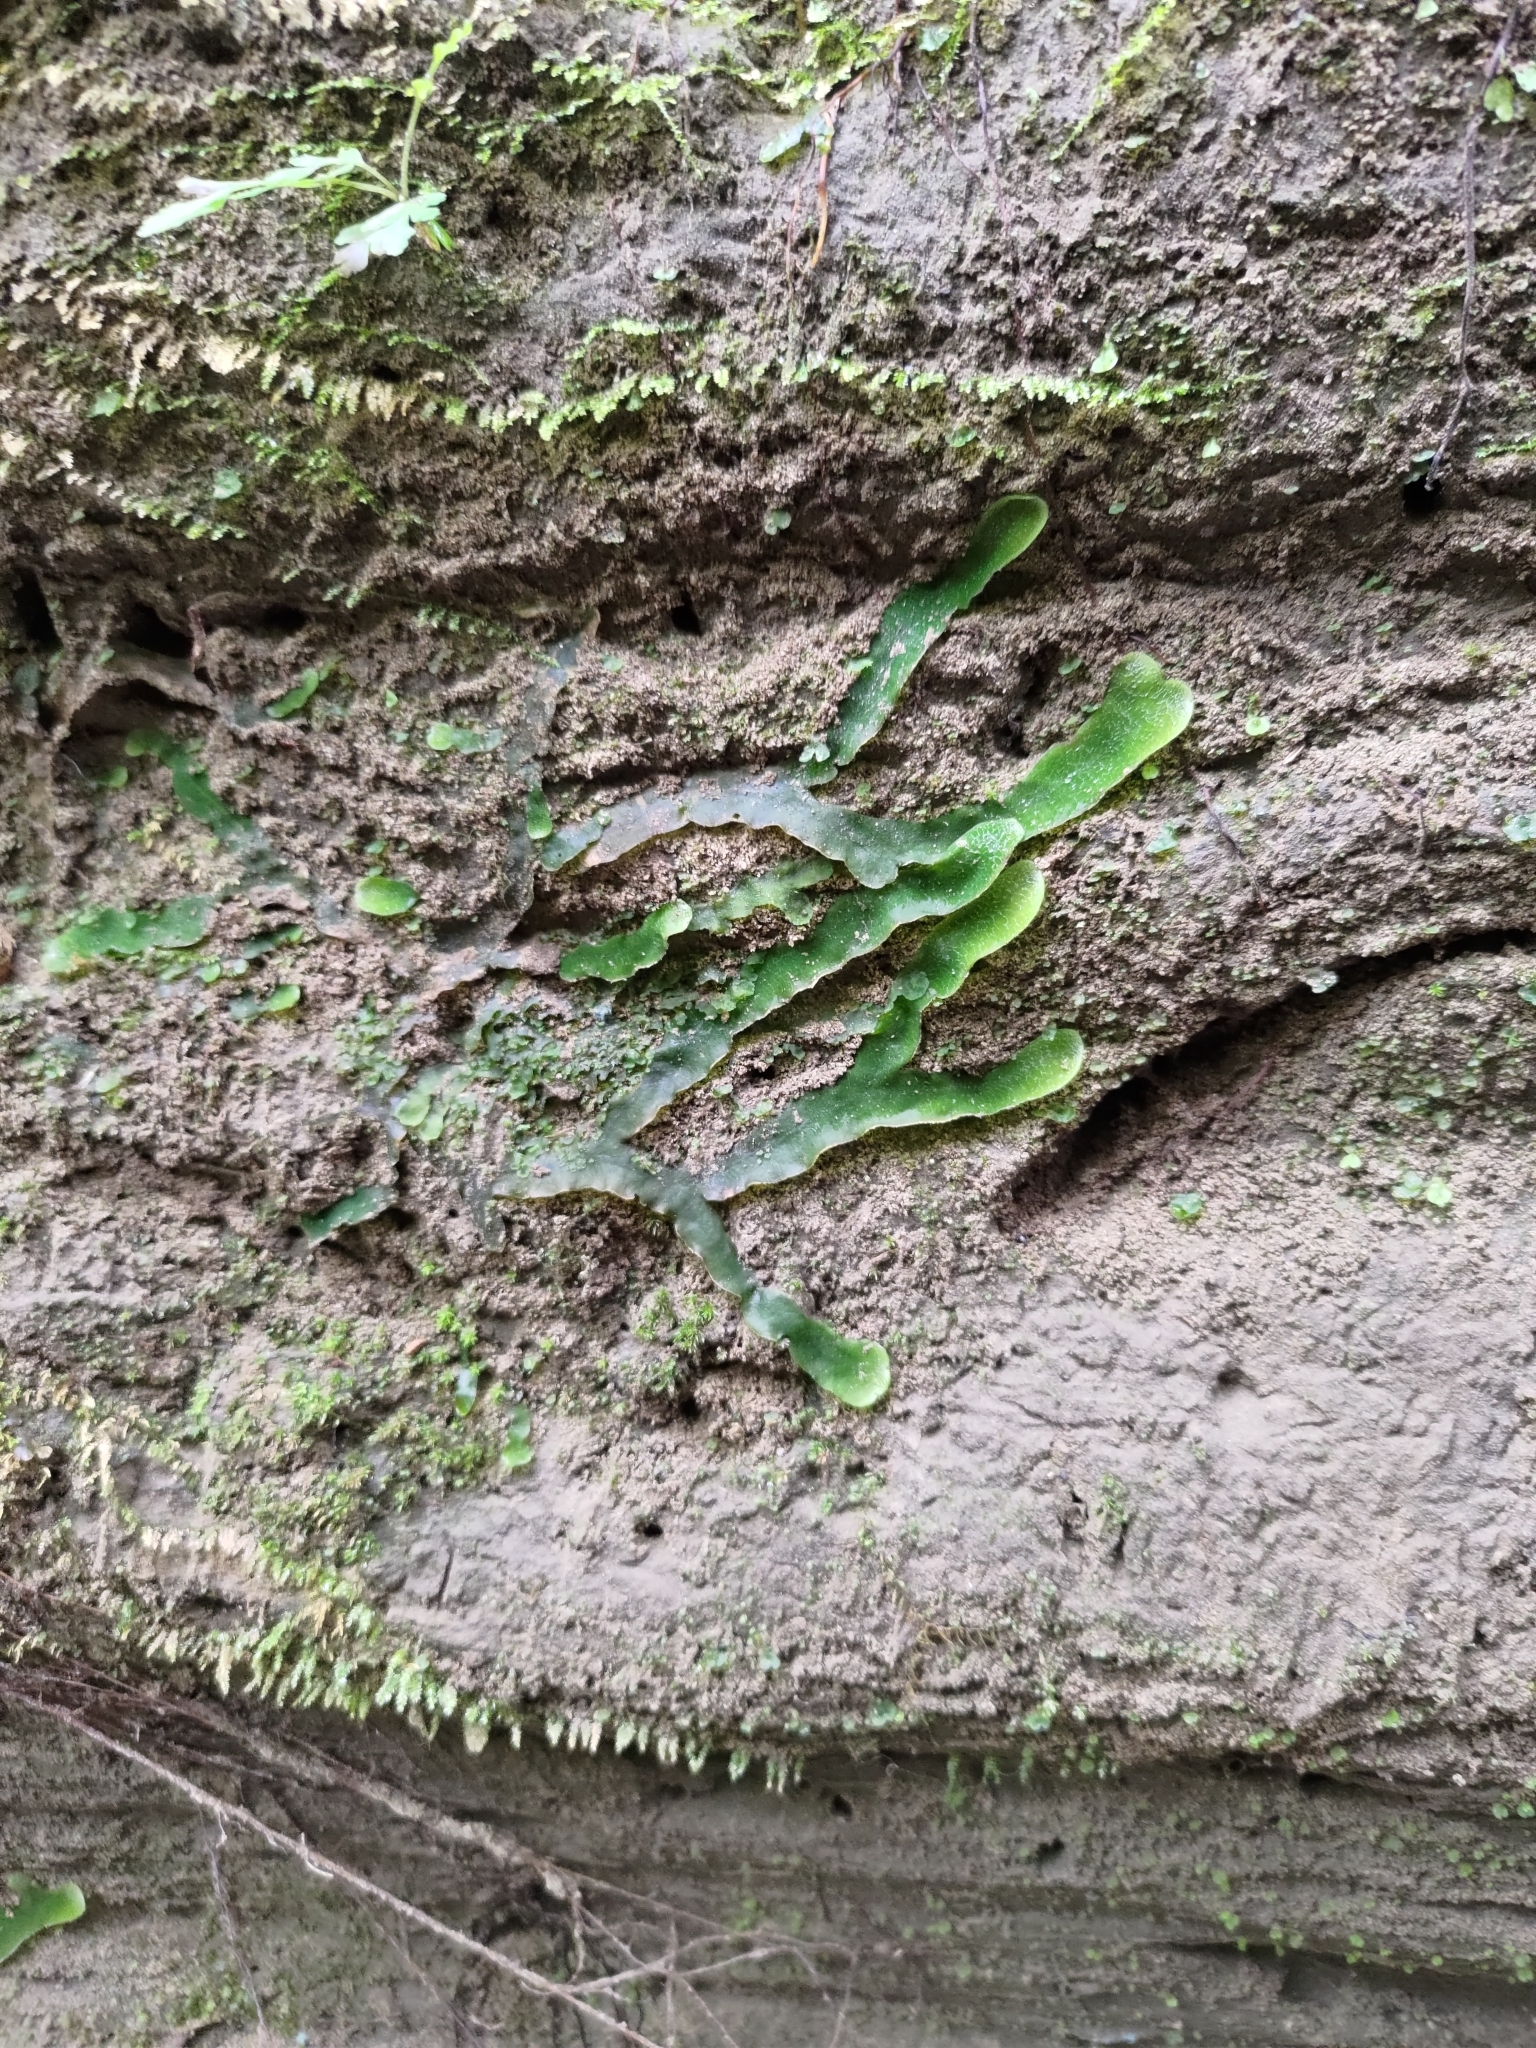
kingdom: Plantae
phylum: Marchantiophyta
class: Marchantiopsida
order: Marchantiales
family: Dumortieraceae
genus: Dumortiera
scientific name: Dumortiera hirsuta
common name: Dumortier's liverwort
